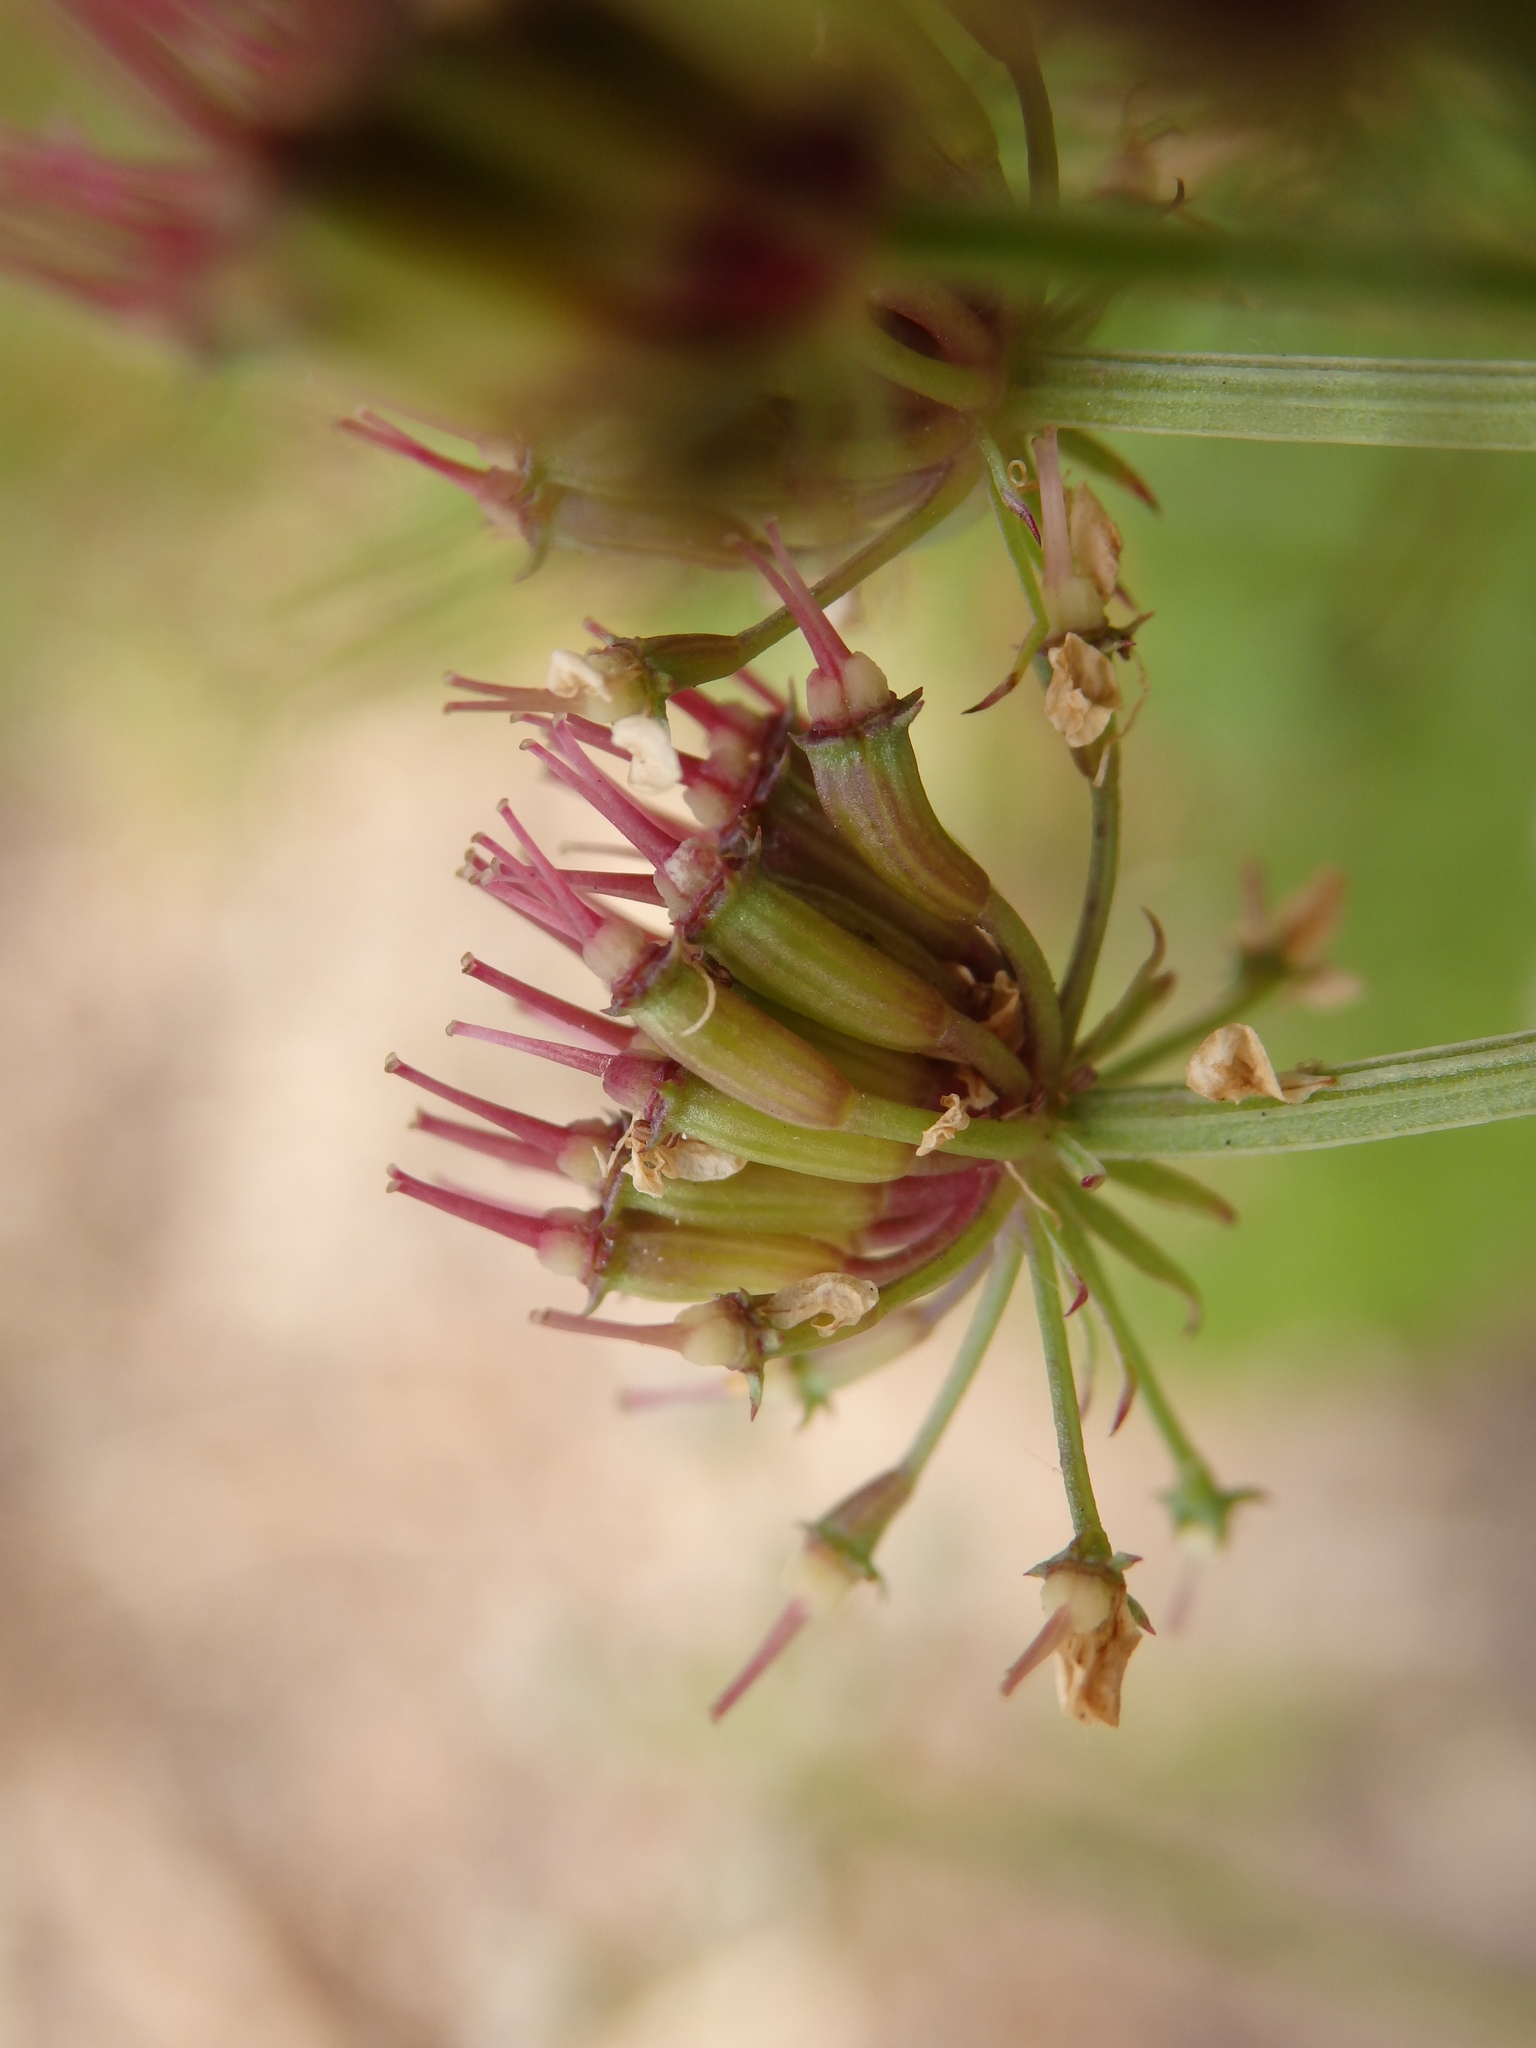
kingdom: Plantae
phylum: Tracheophyta
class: Magnoliopsida
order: Apiales
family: Apiaceae
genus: Oenanthe
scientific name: Oenanthe crocata
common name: Hemlock water-dropwort
